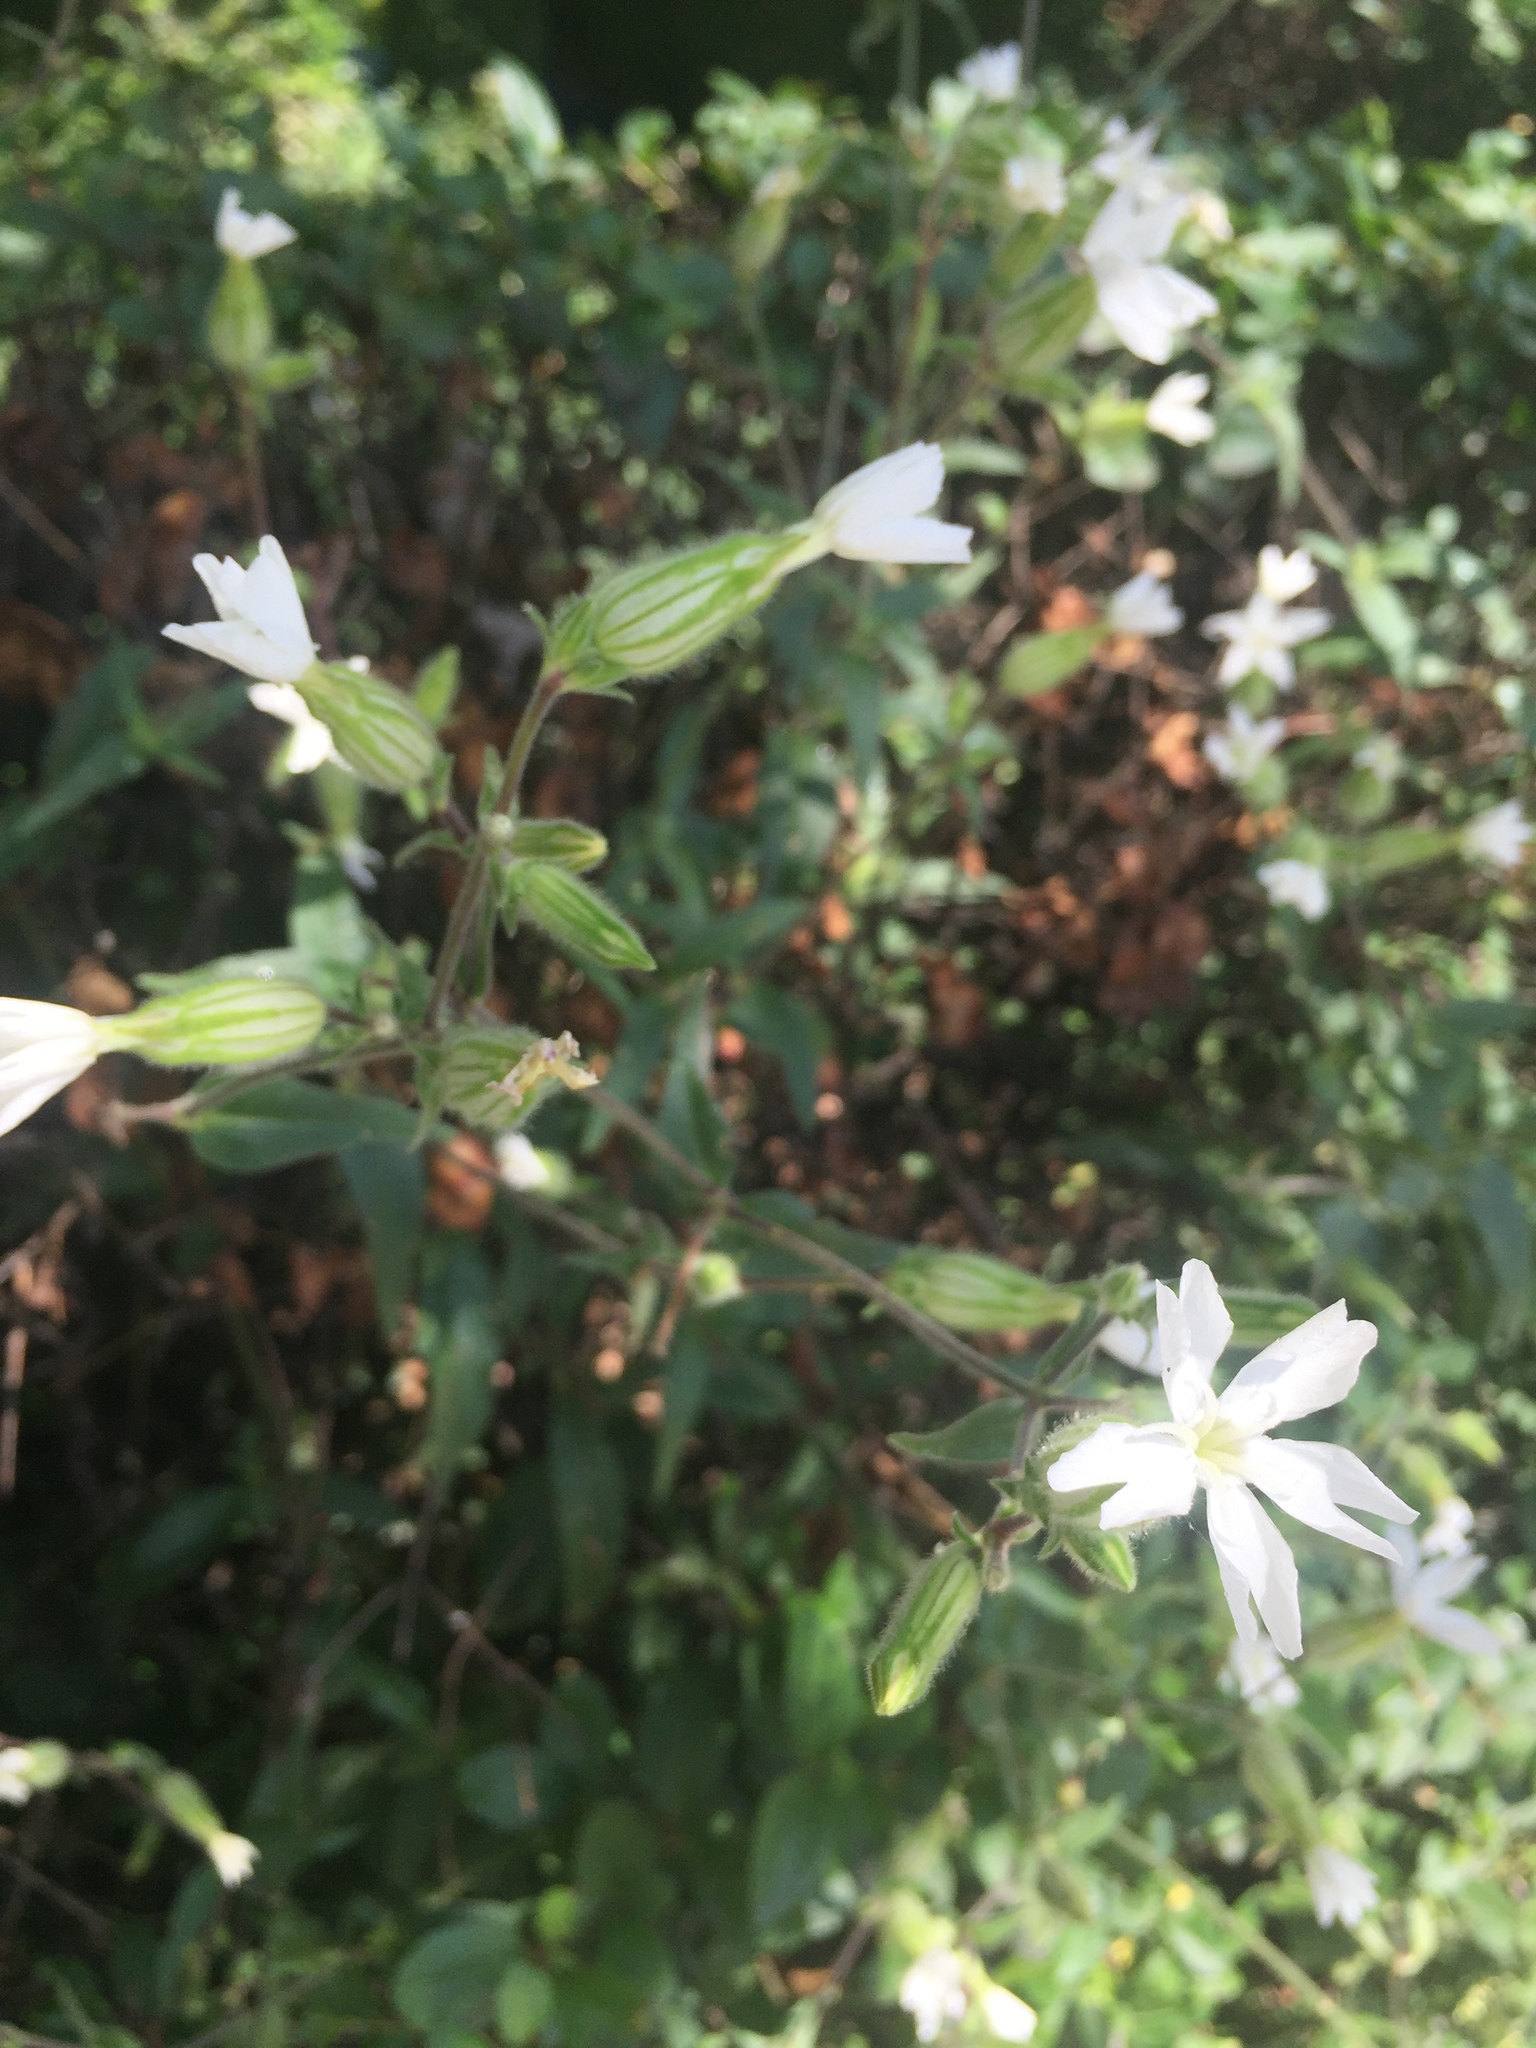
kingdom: Plantae
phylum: Tracheophyta
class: Magnoliopsida
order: Caryophyllales
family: Caryophyllaceae
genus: Silene
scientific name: Silene latifolia
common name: White campion
